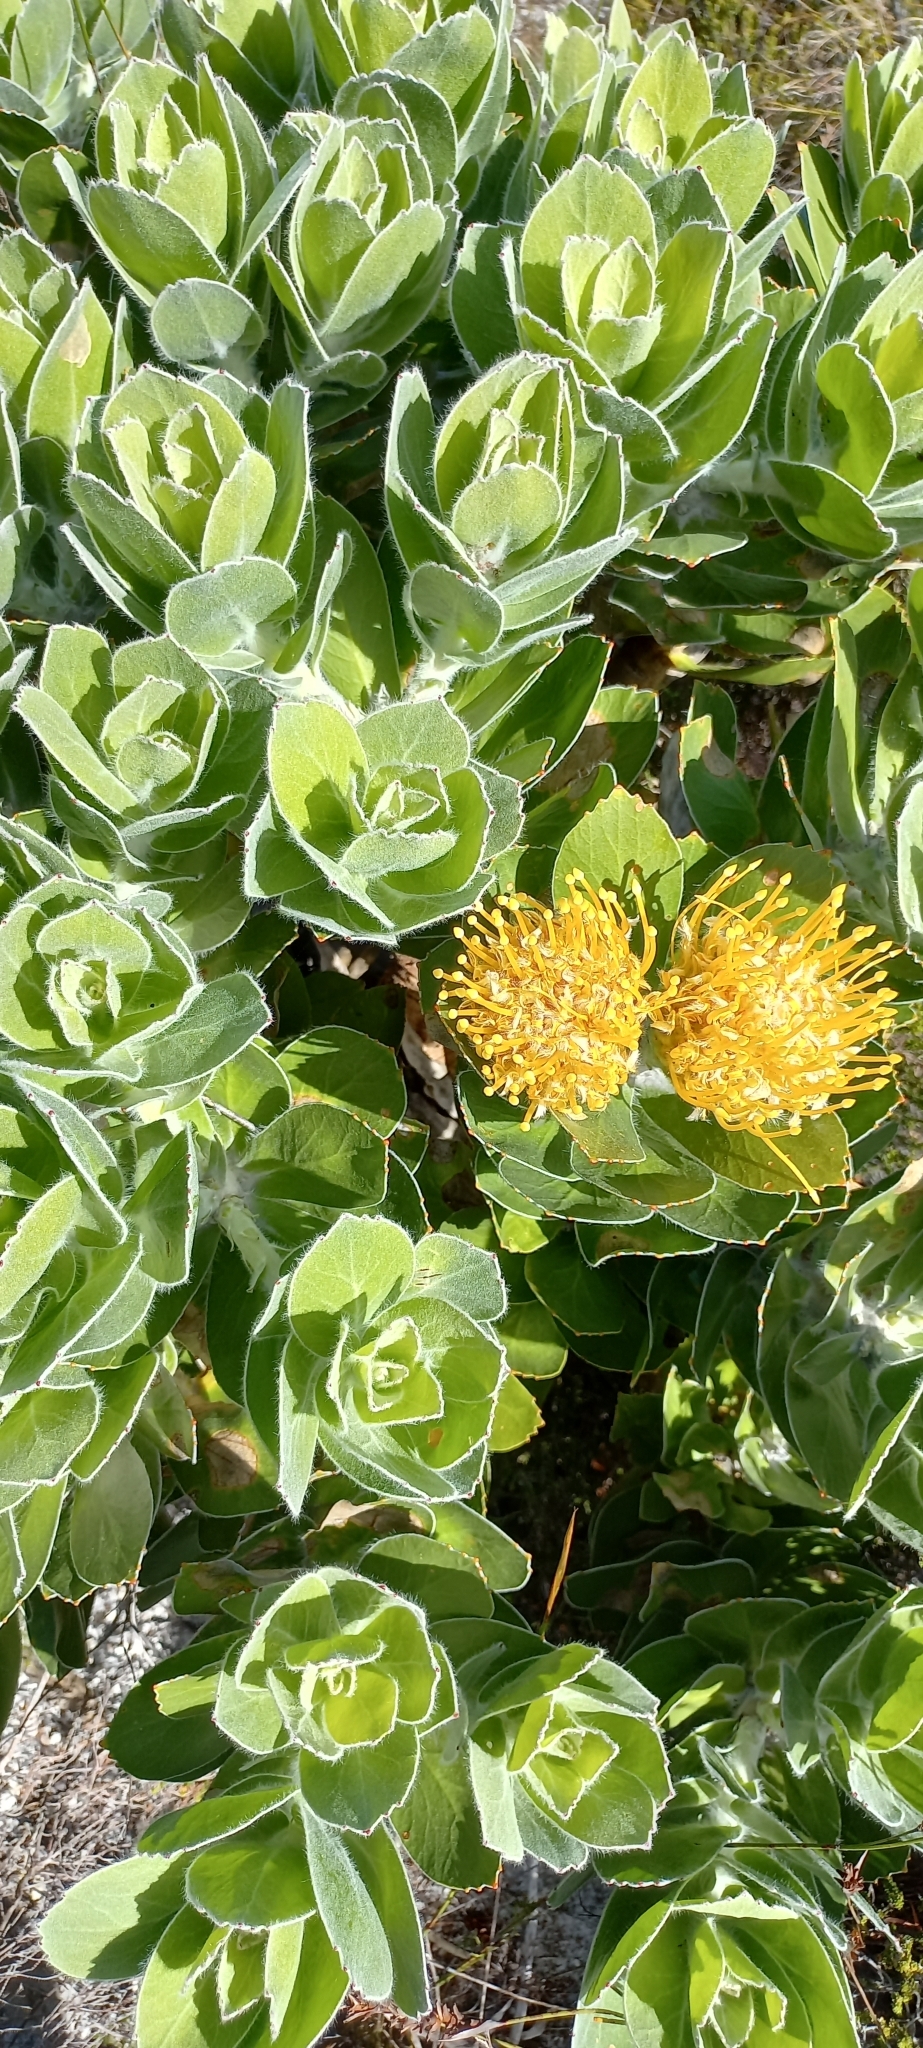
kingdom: Plantae
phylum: Tracheophyta
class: Magnoliopsida
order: Proteales
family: Proteaceae
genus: Leucospermum
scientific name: Leucospermum conocarpodendron
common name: Tree pincushion
